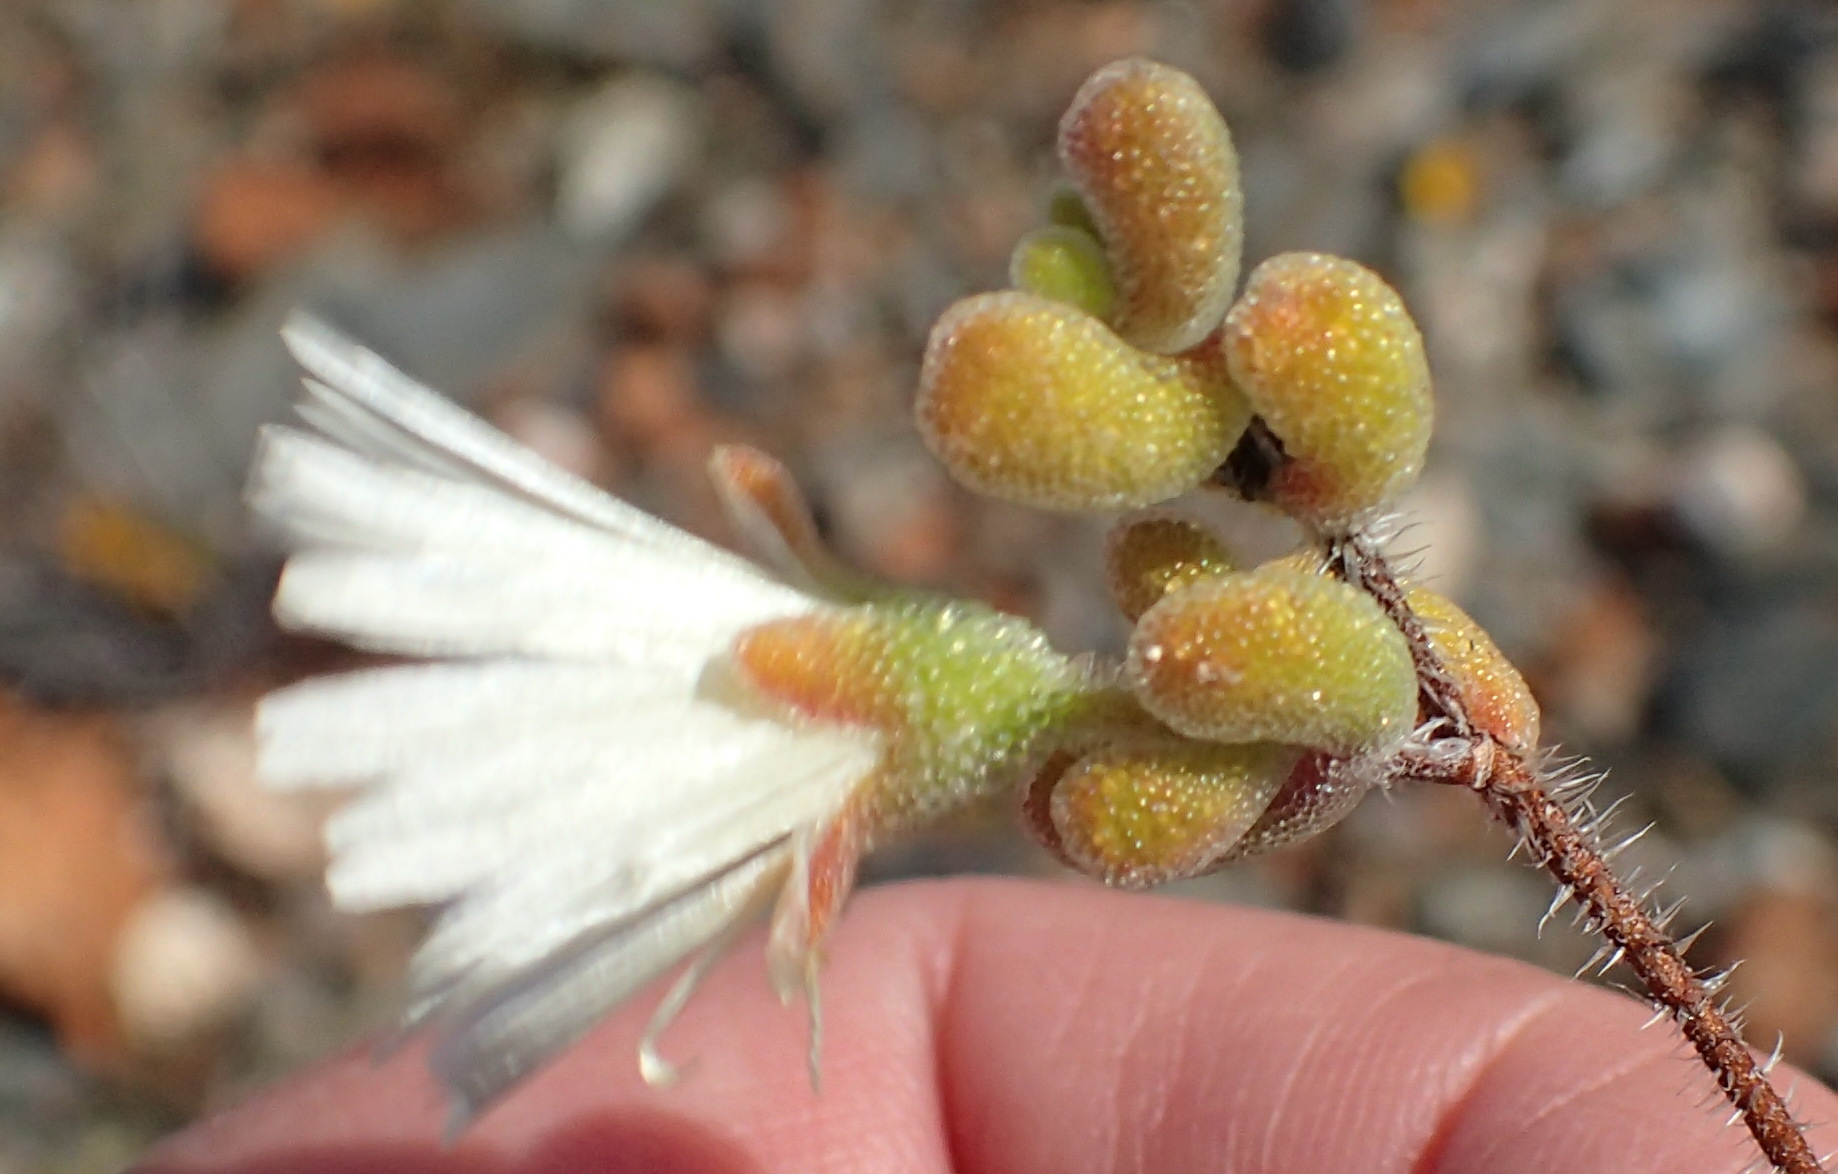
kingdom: Plantae
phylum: Tracheophyta
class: Magnoliopsida
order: Caryophyllales
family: Aizoaceae
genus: Drosanthemum
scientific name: Drosanthemum schoenlandianum
